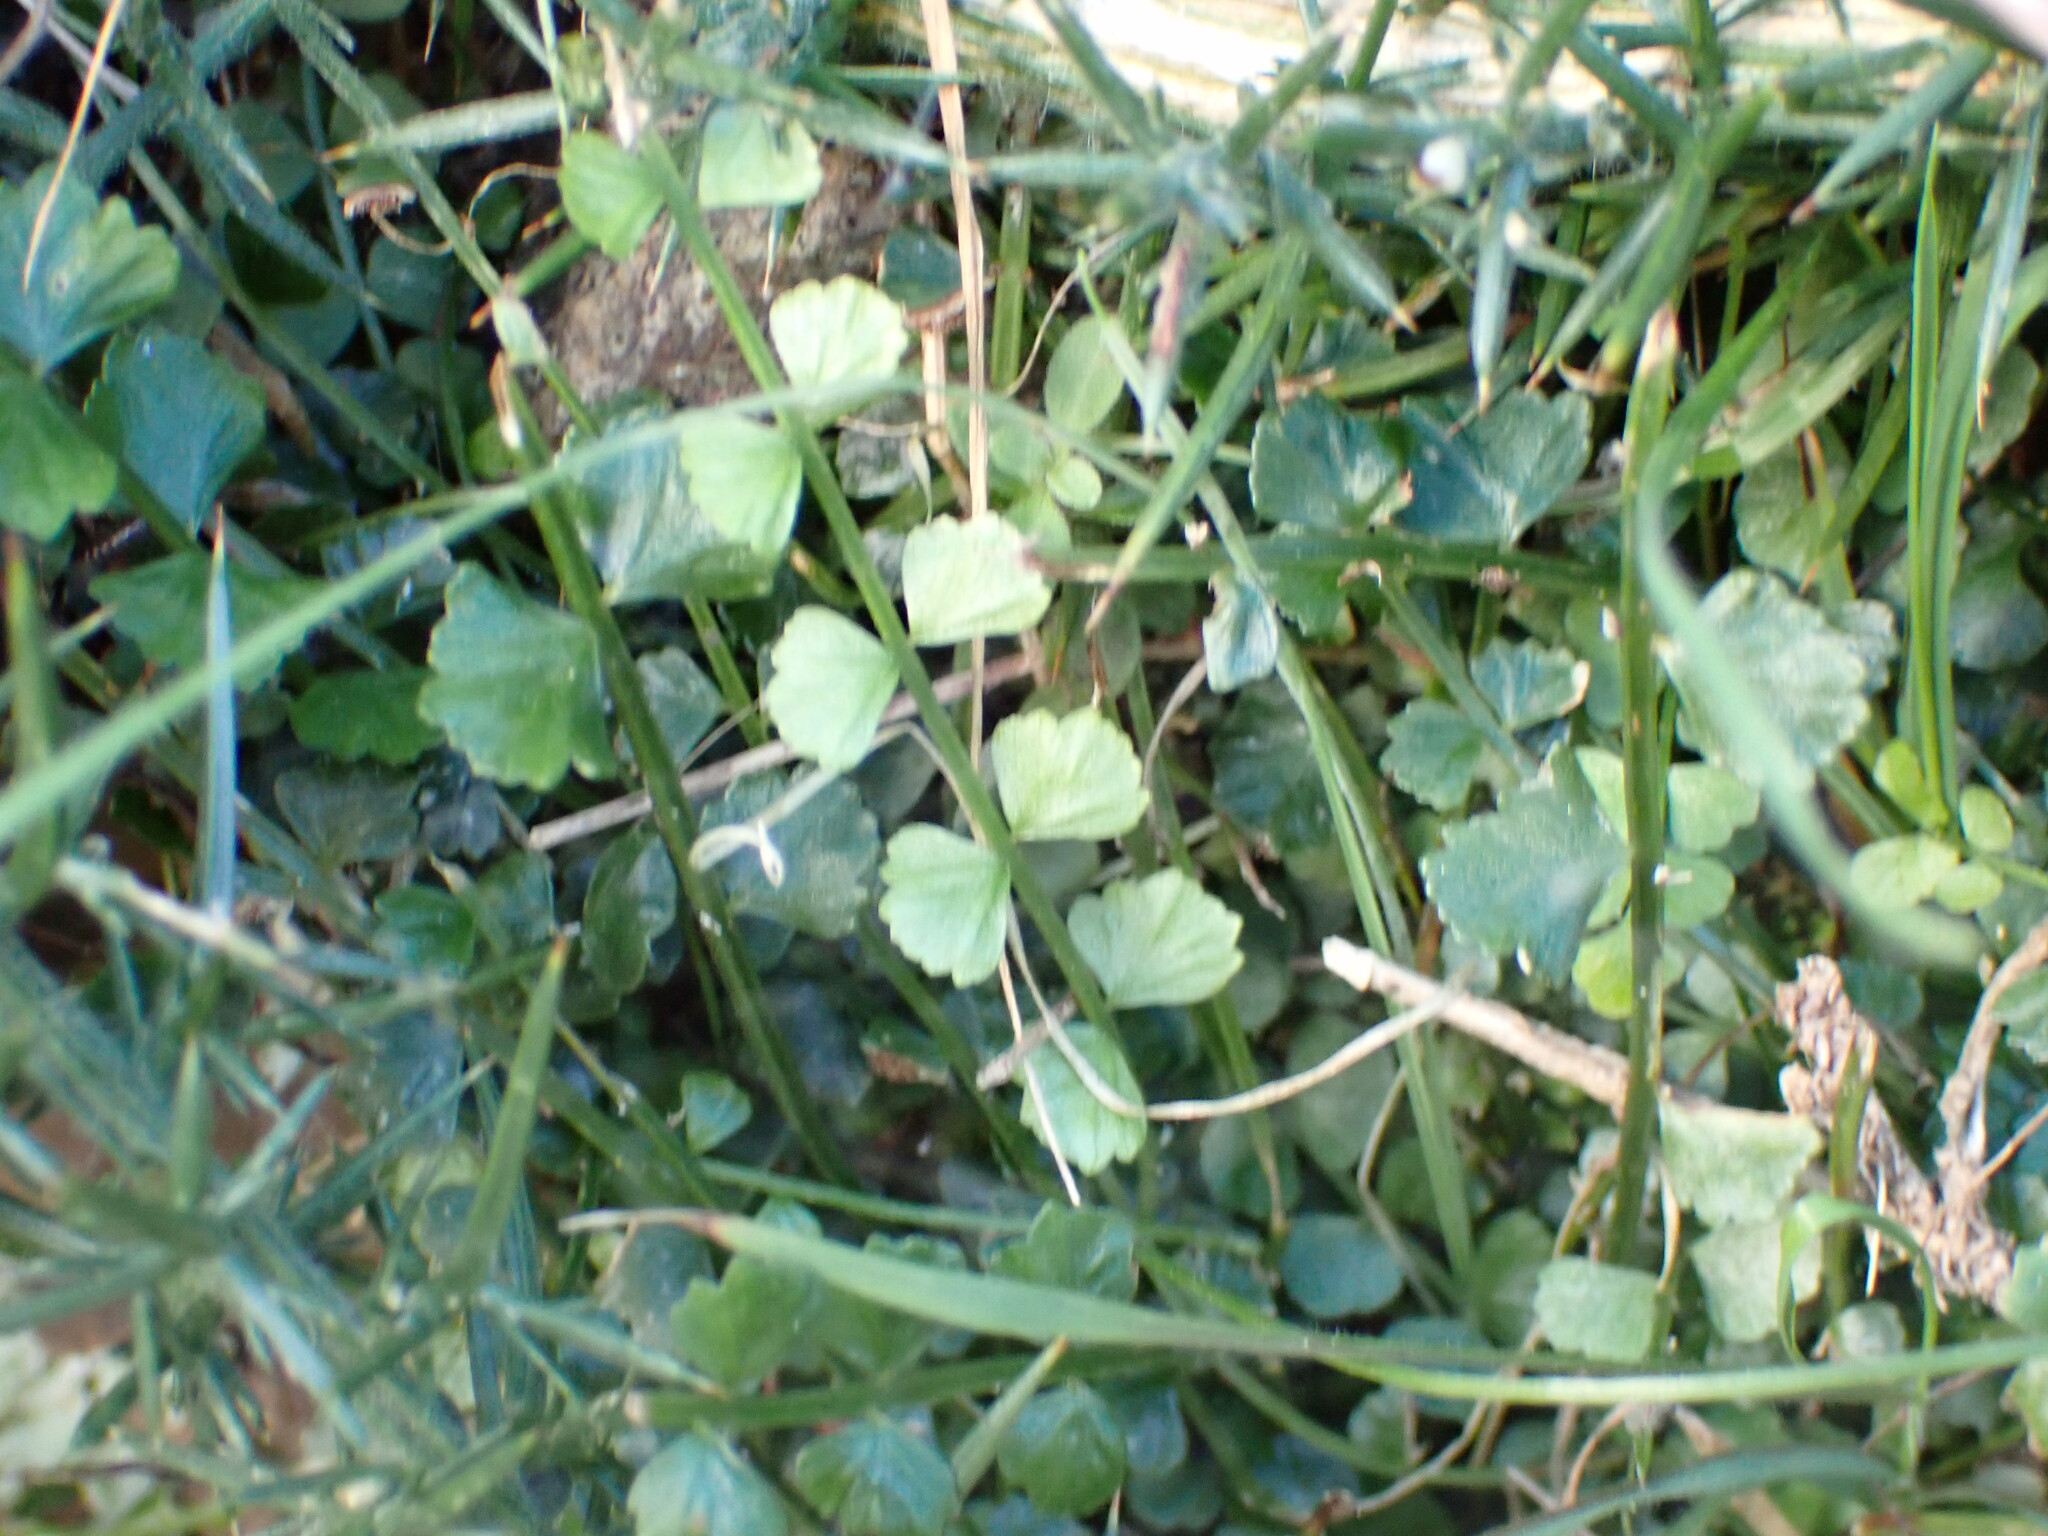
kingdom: Plantae
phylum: Tracheophyta
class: Polypodiopsida
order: Polypodiales
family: Aspleniaceae
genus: Asplenium
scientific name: Asplenium flabellifolium
